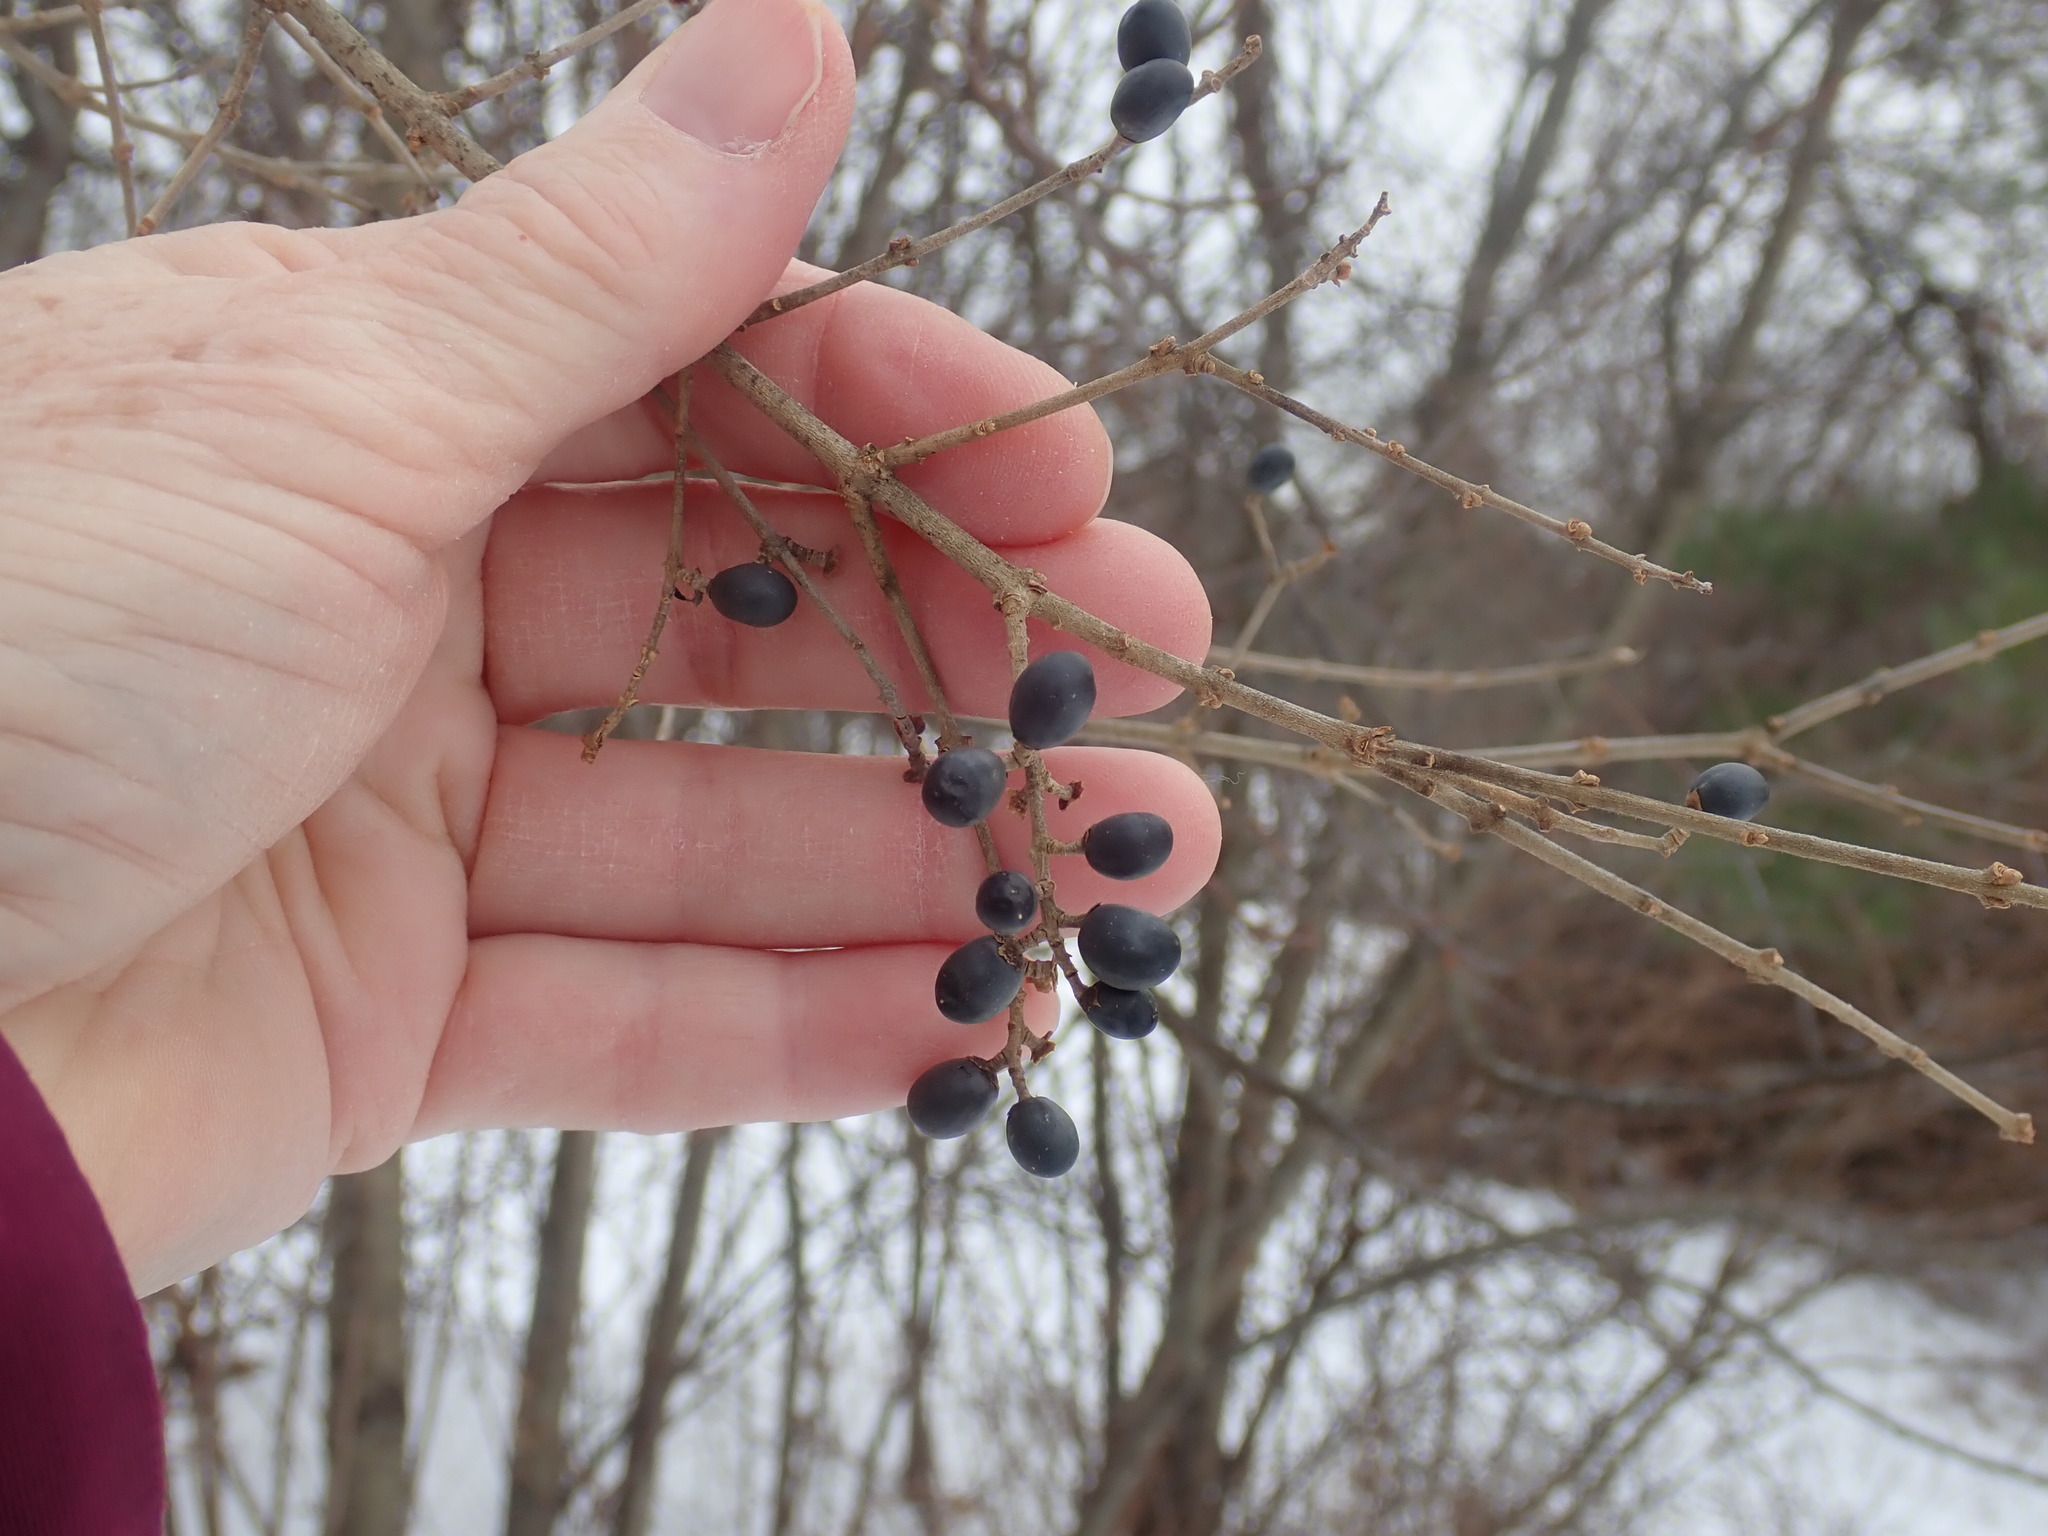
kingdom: Plantae
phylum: Tracheophyta
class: Magnoliopsida
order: Lamiales
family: Oleaceae
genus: Ligustrum
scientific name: Ligustrum obtusifolium
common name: Border privet
